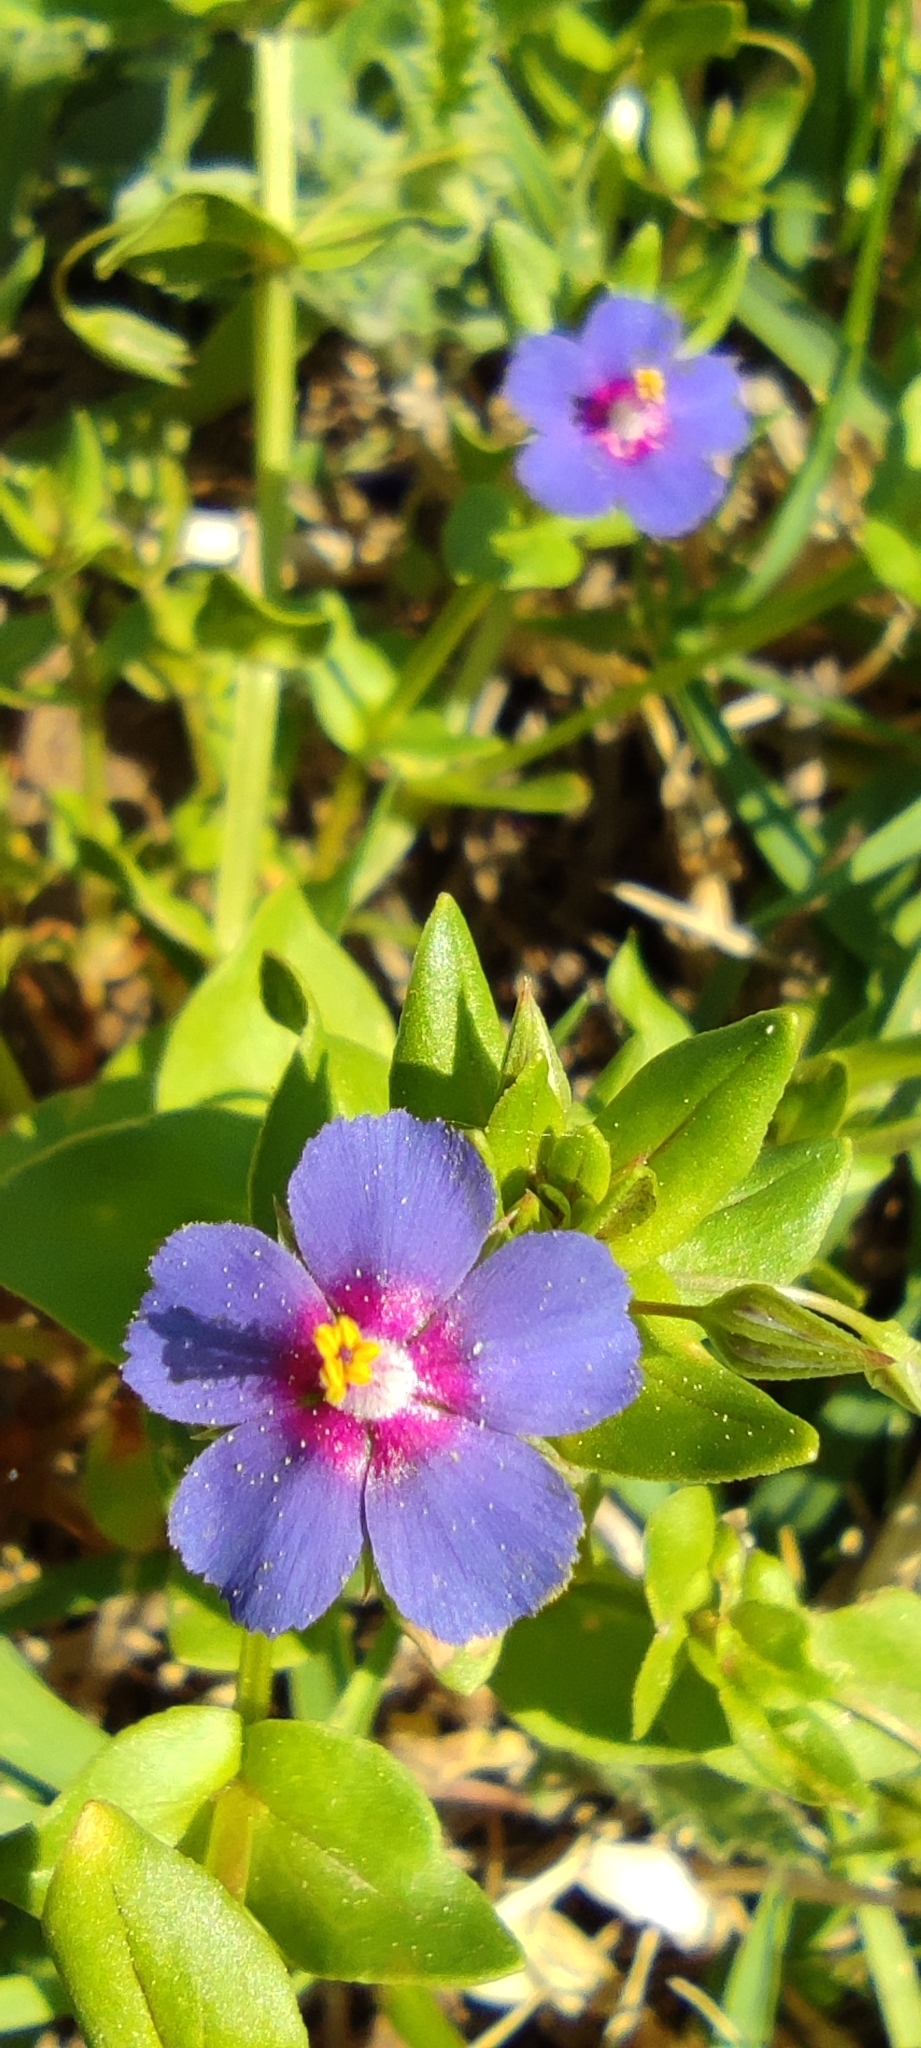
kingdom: Plantae
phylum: Tracheophyta
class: Magnoliopsida
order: Ericales
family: Primulaceae
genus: Lysimachia
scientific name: Lysimachia arvensis
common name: Scarlet pimpernel
